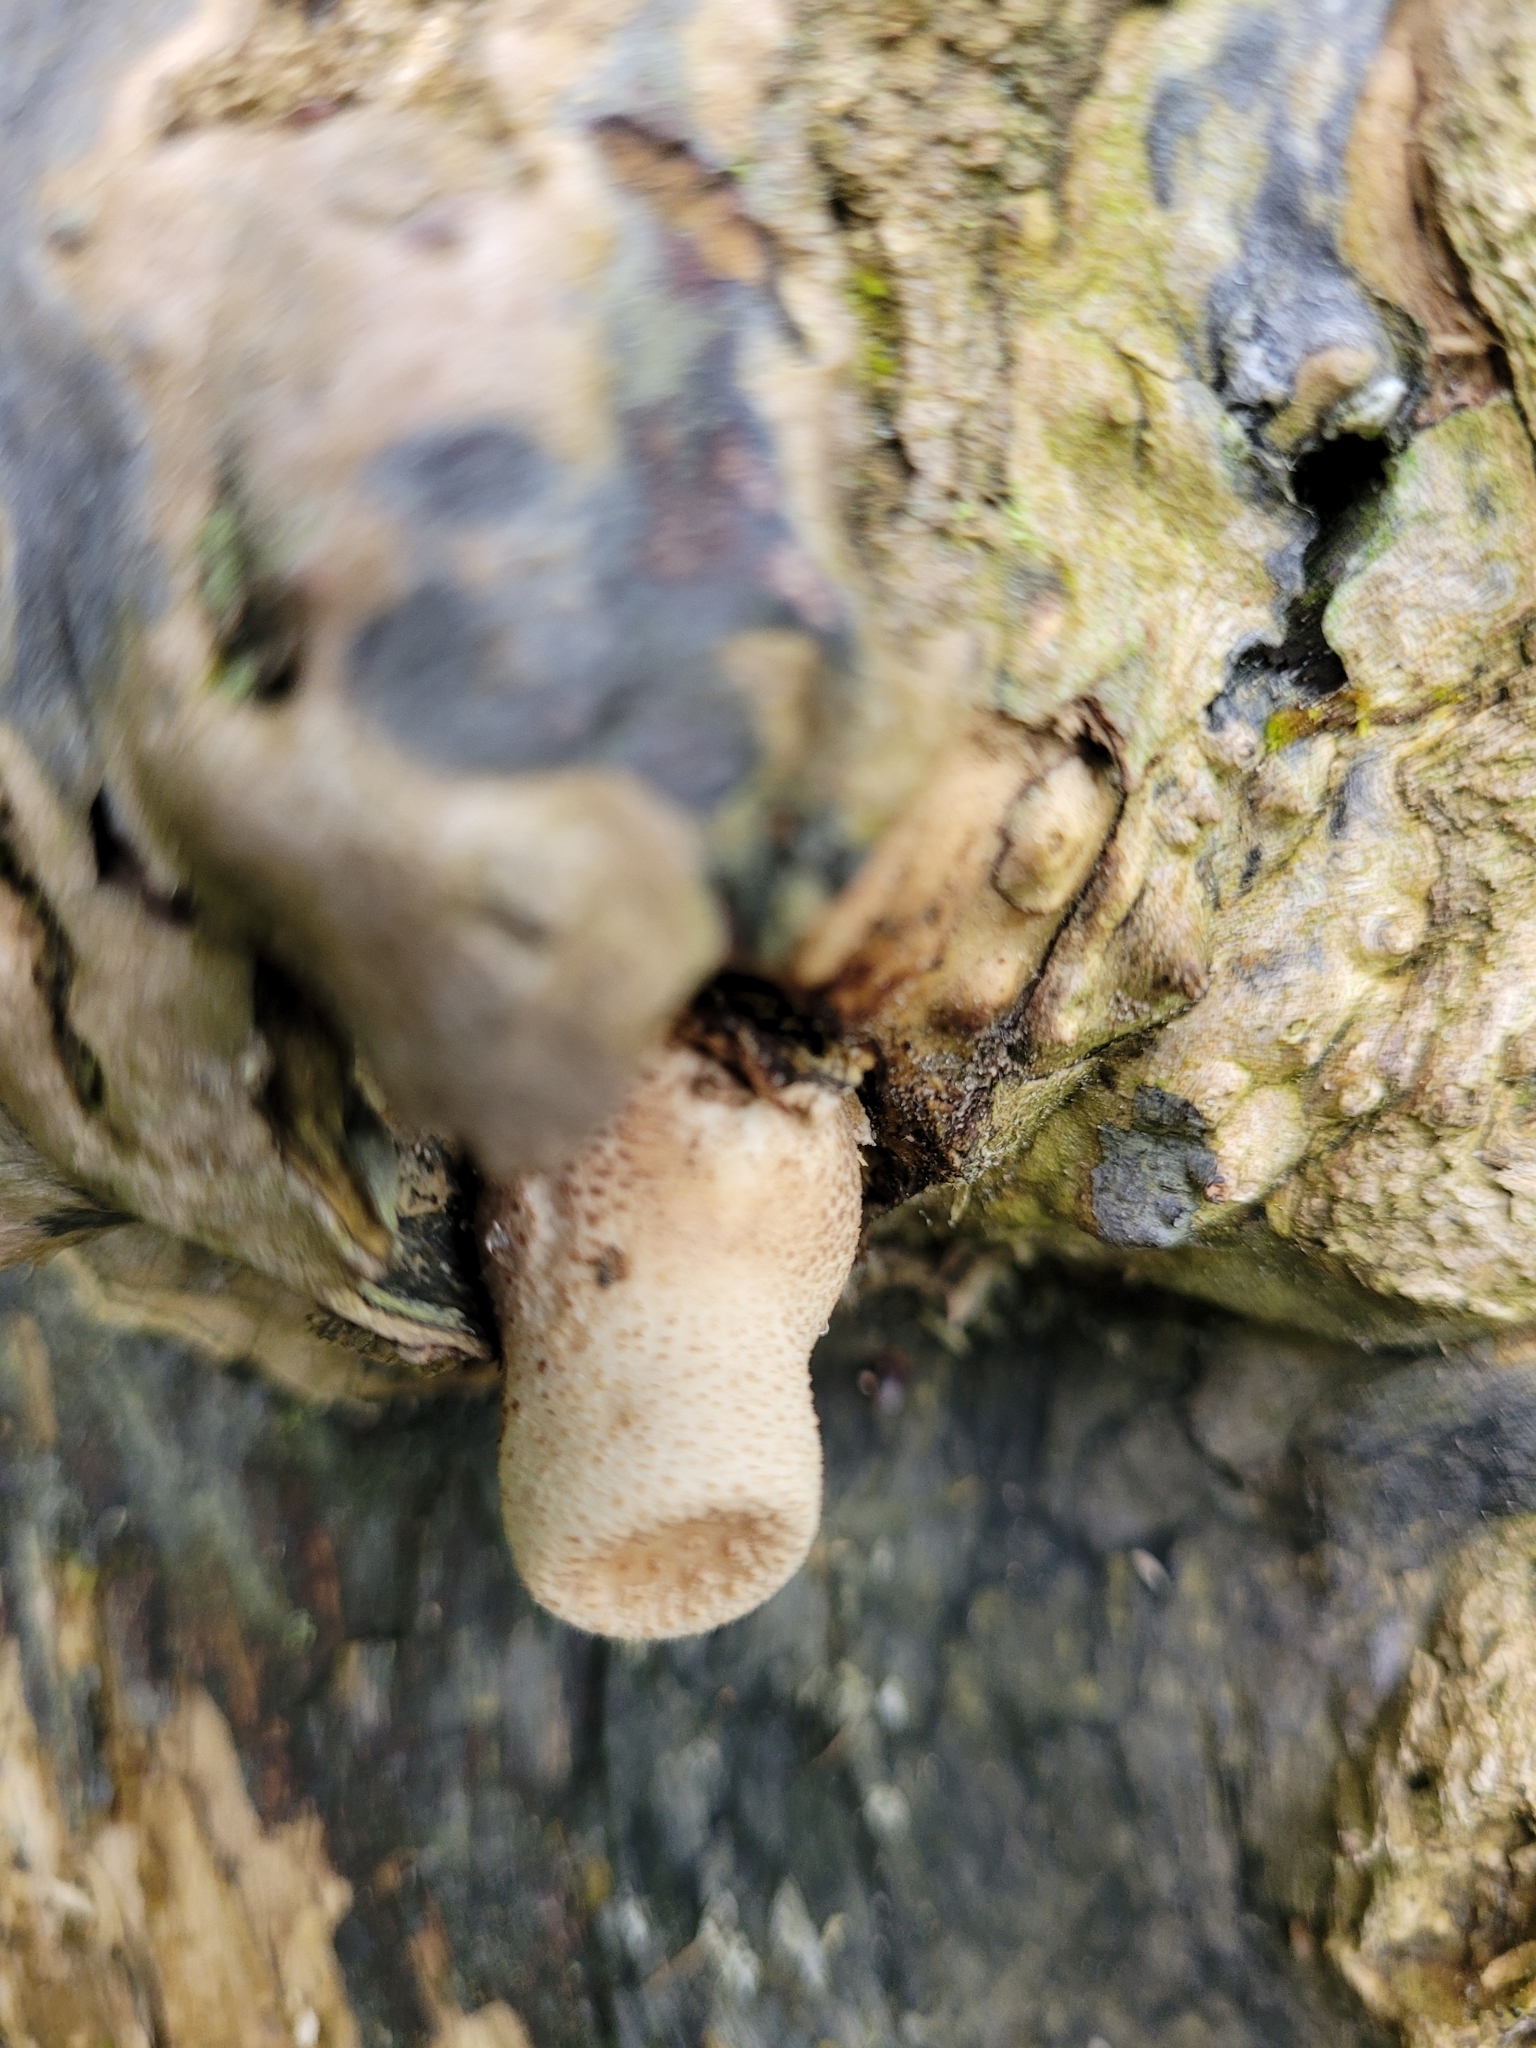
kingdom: Fungi
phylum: Basidiomycota
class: Agaricomycetes
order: Polyporales
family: Polyporaceae
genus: Cerioporus
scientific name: Cerioporus squamosus
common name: Dryad's saddle
